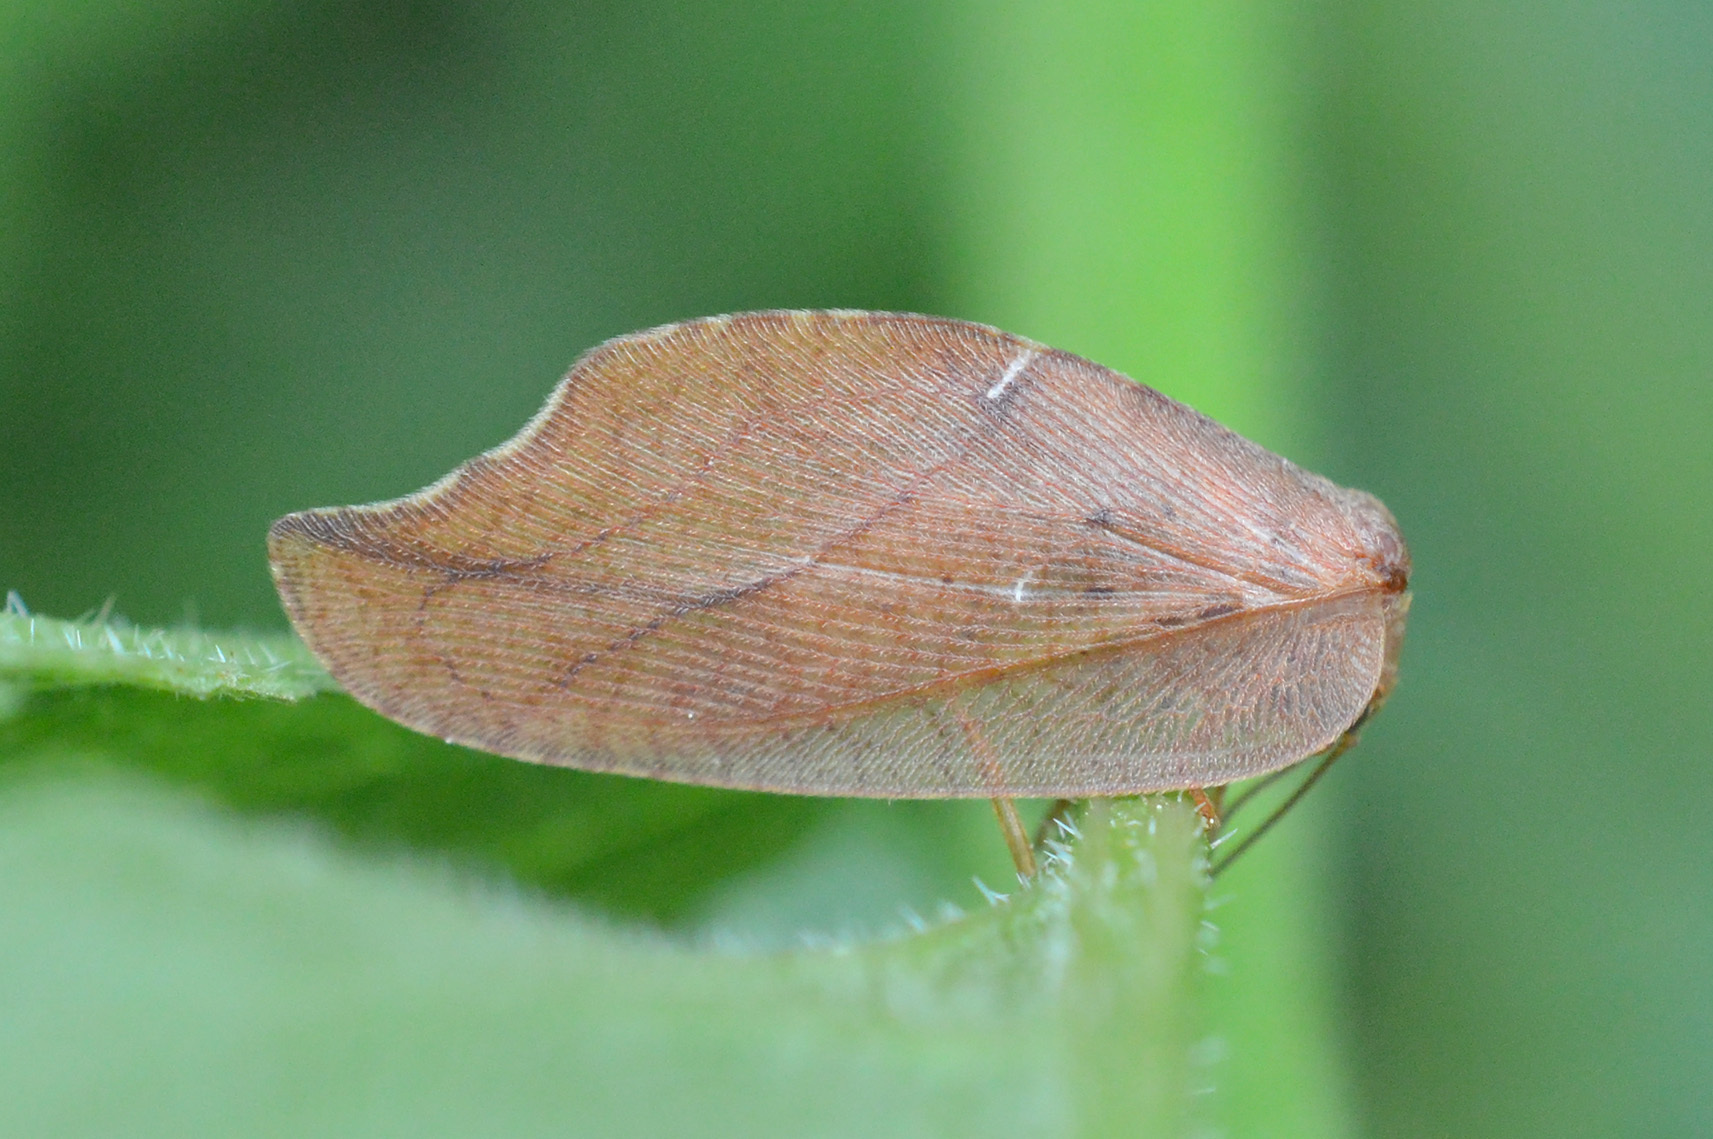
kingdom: Animalia
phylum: Arthropoda
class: Insecta
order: Neuroptera
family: Hemerobiidae
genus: Drepanepteryx
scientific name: Drepanepteryx phalaenoides
